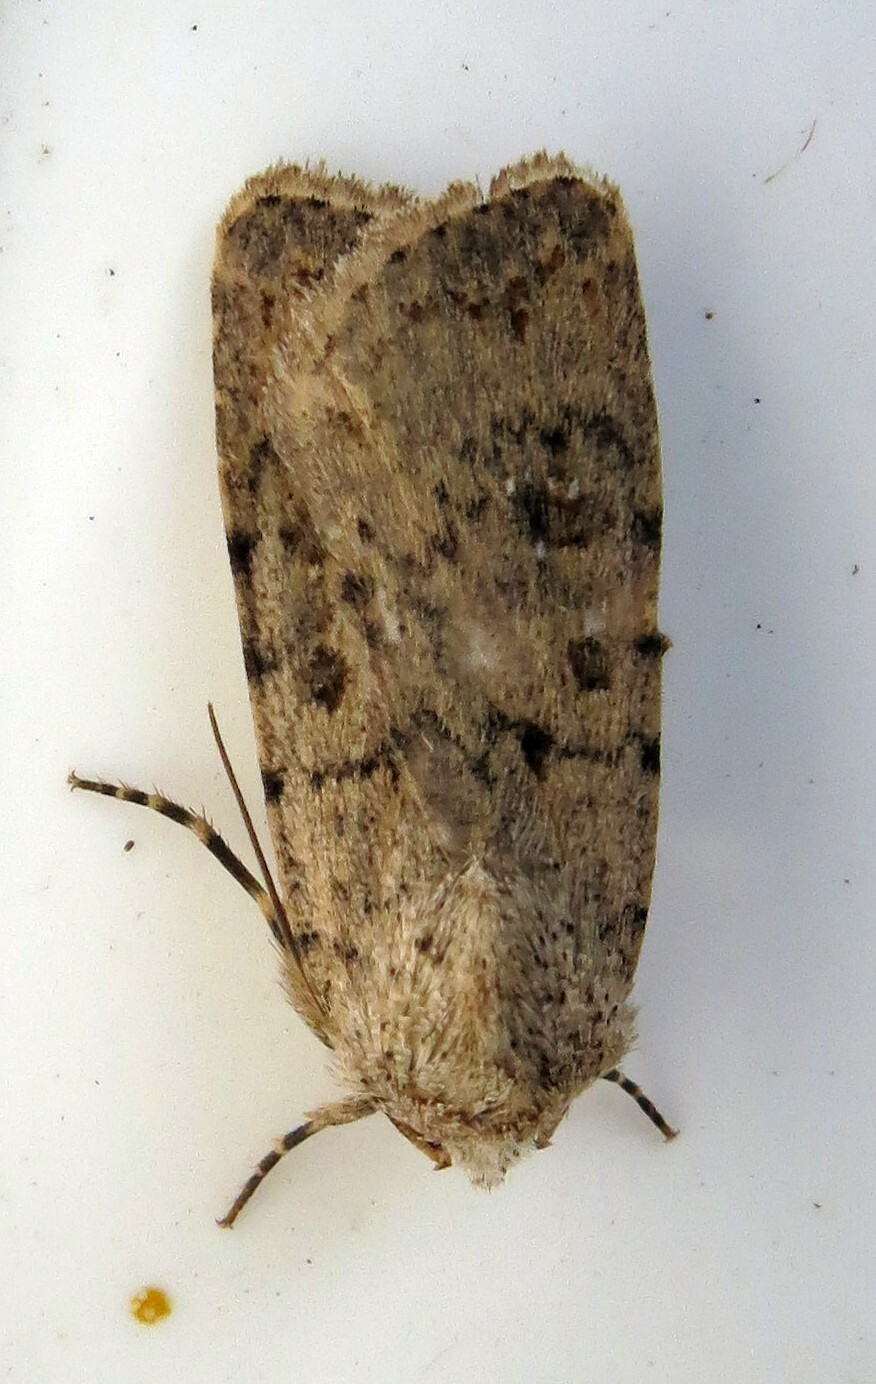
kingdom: Animalia
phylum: Arthropoda
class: Insecta
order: Lepidoptera
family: Noctuidae
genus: Caradrina
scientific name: Caradrina clavipalpis
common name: Pale mottled willow
